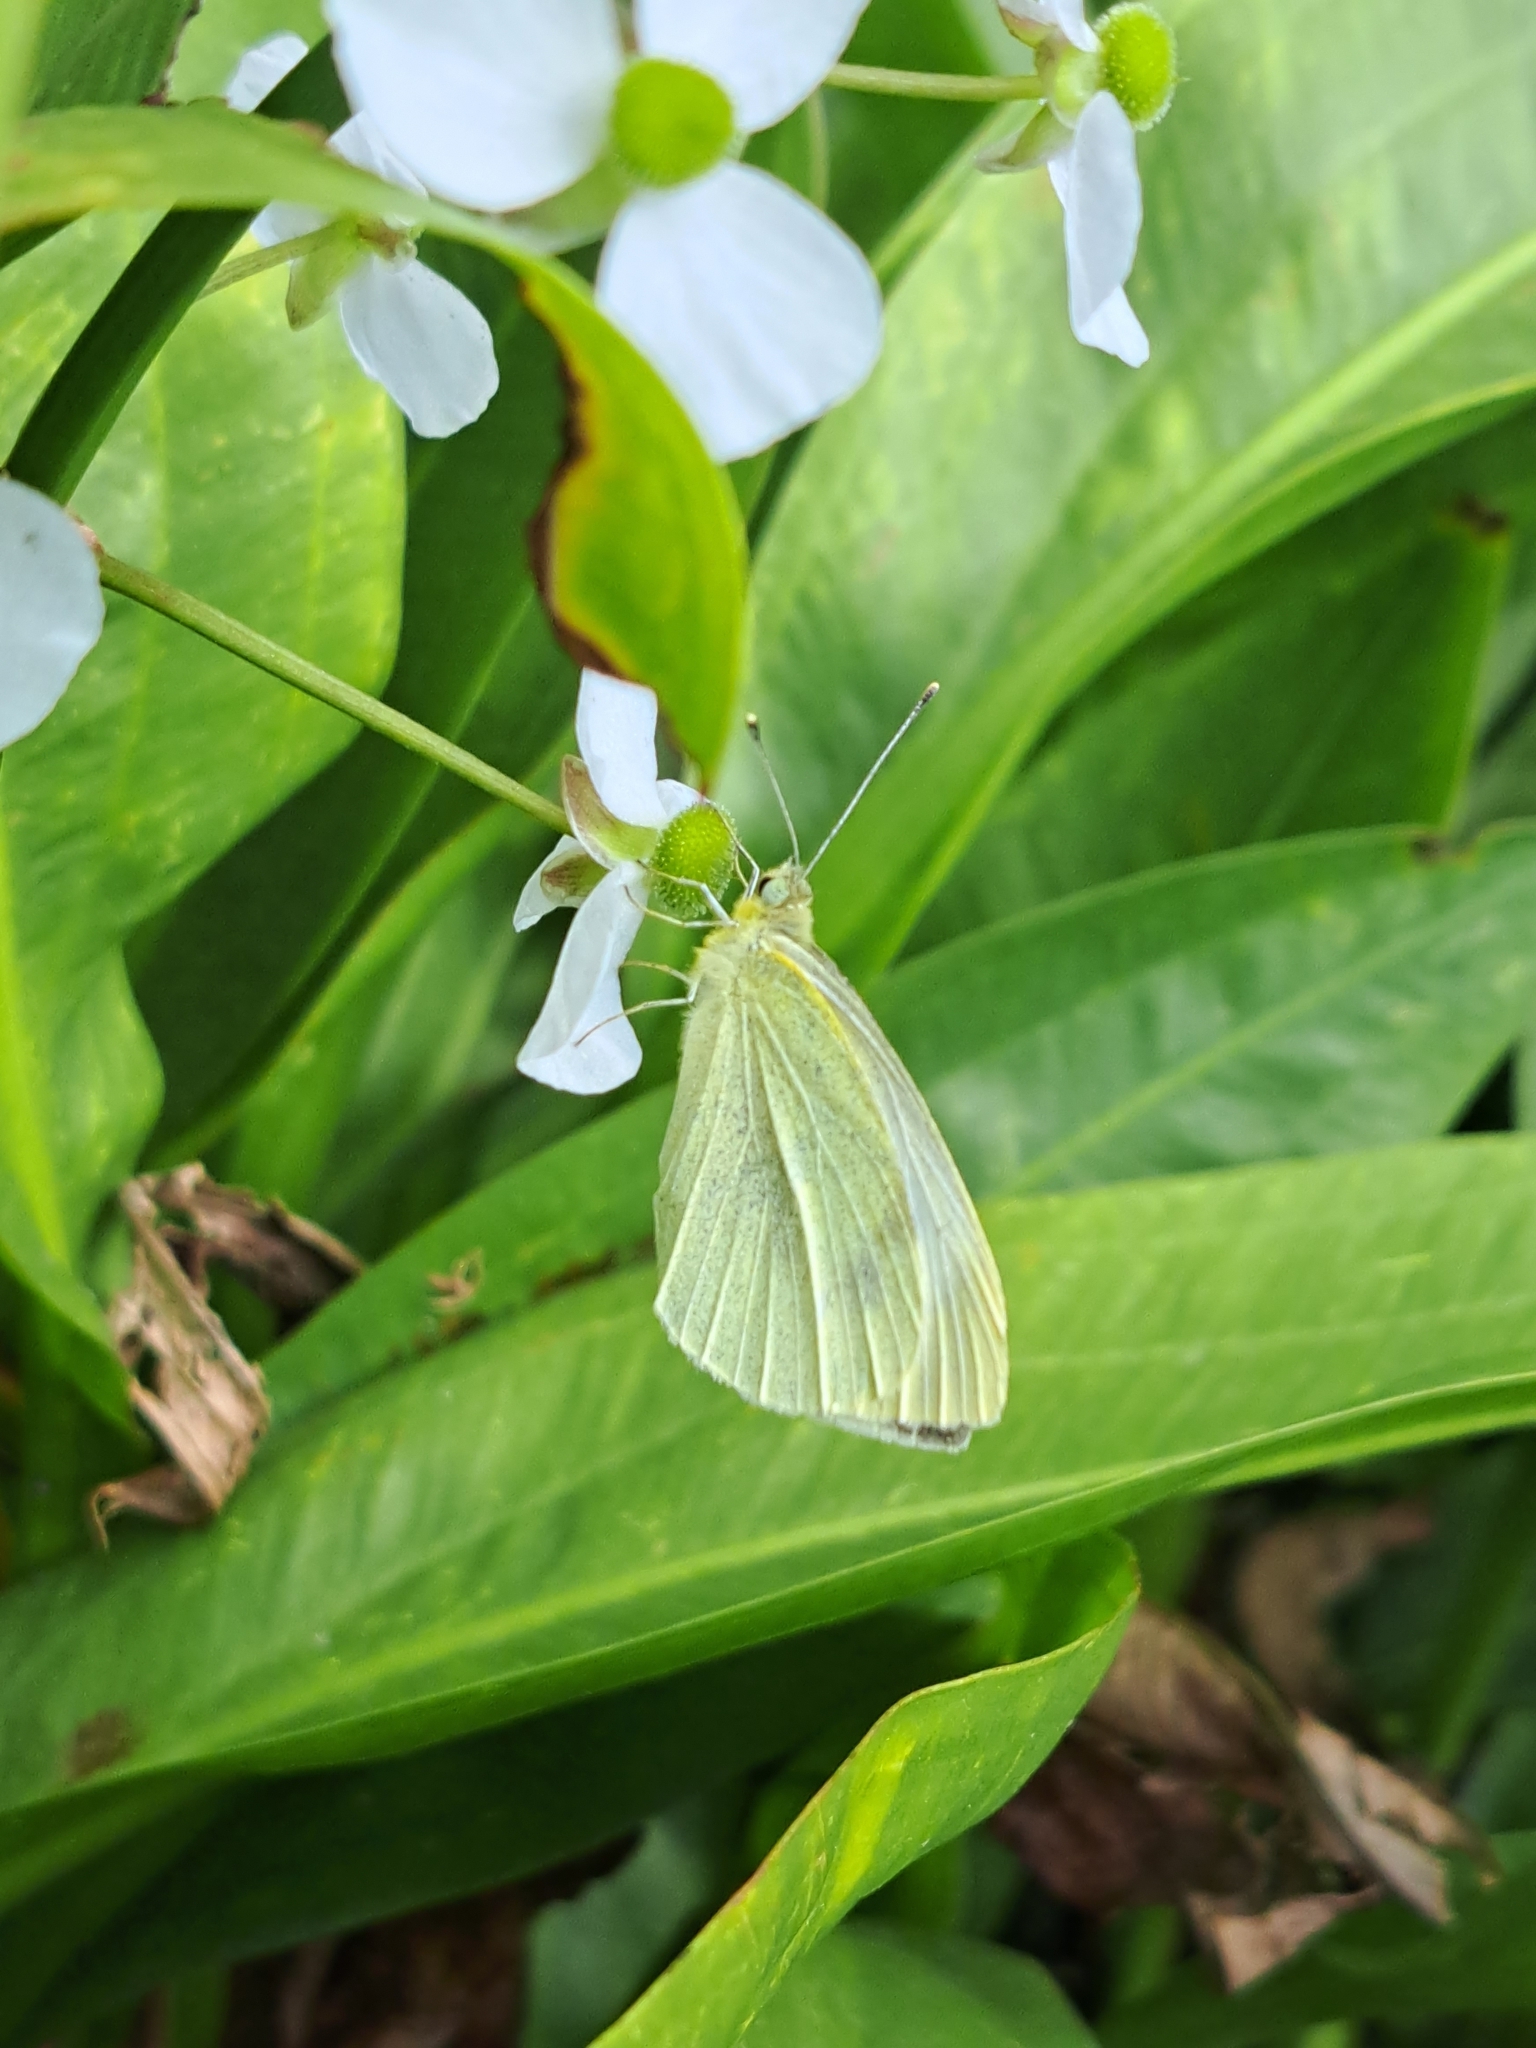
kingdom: Animalia
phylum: Arthropoda
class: Insecta
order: Lepidoptera
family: Pieridae
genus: Pieris
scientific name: Pieris rapae
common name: Small white
